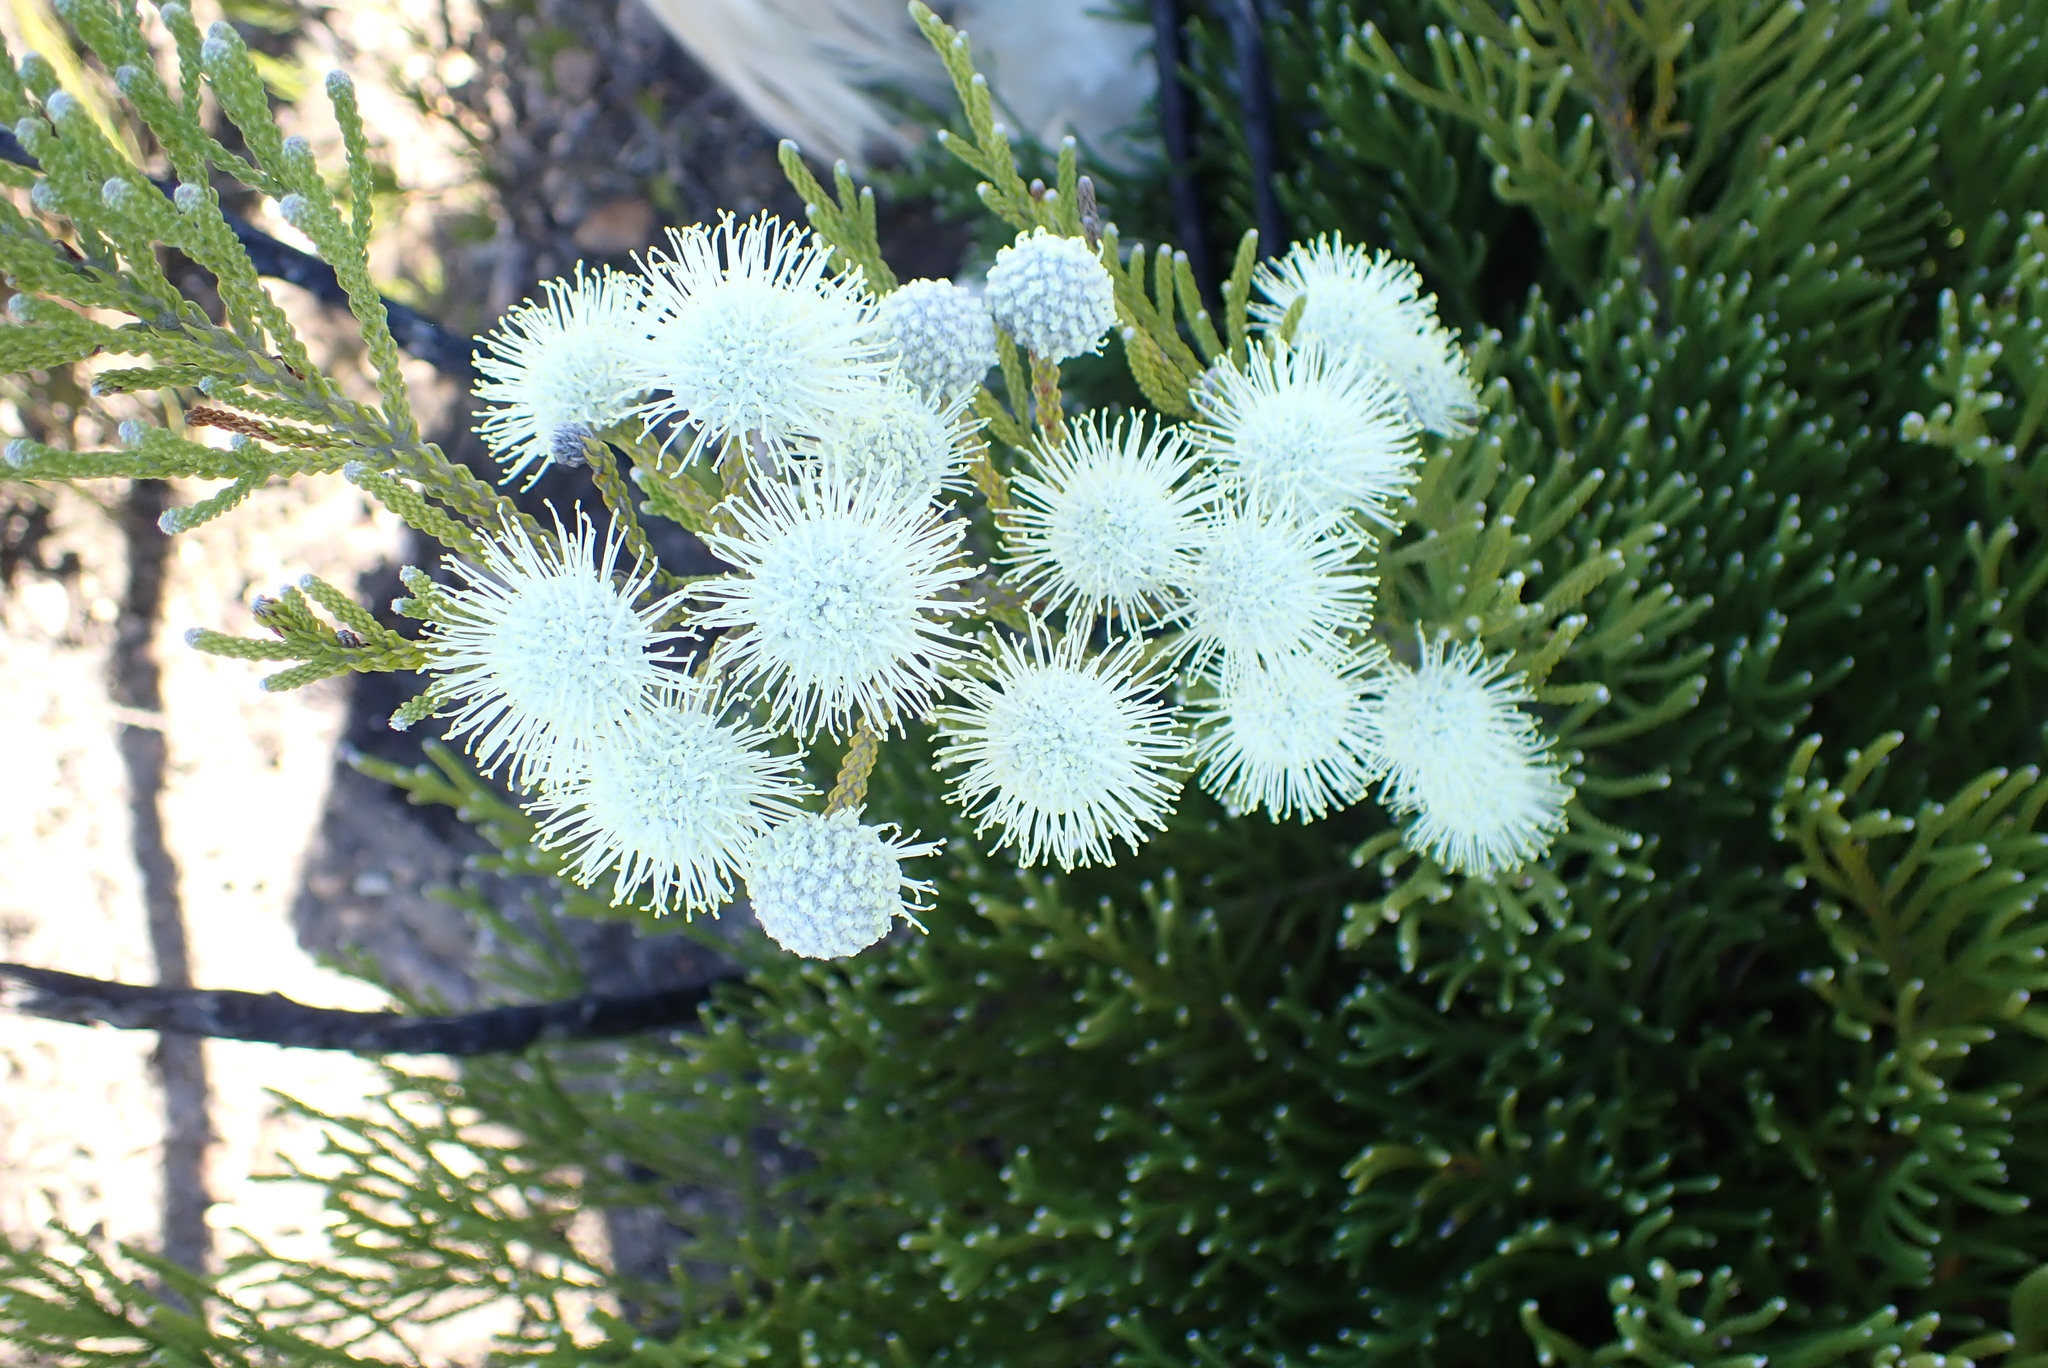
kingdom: Plantae
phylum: Tracheophyta
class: Magnoliopsida
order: Bruniales
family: Bruniaceae
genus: Brunia
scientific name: Brunia noduliflora
